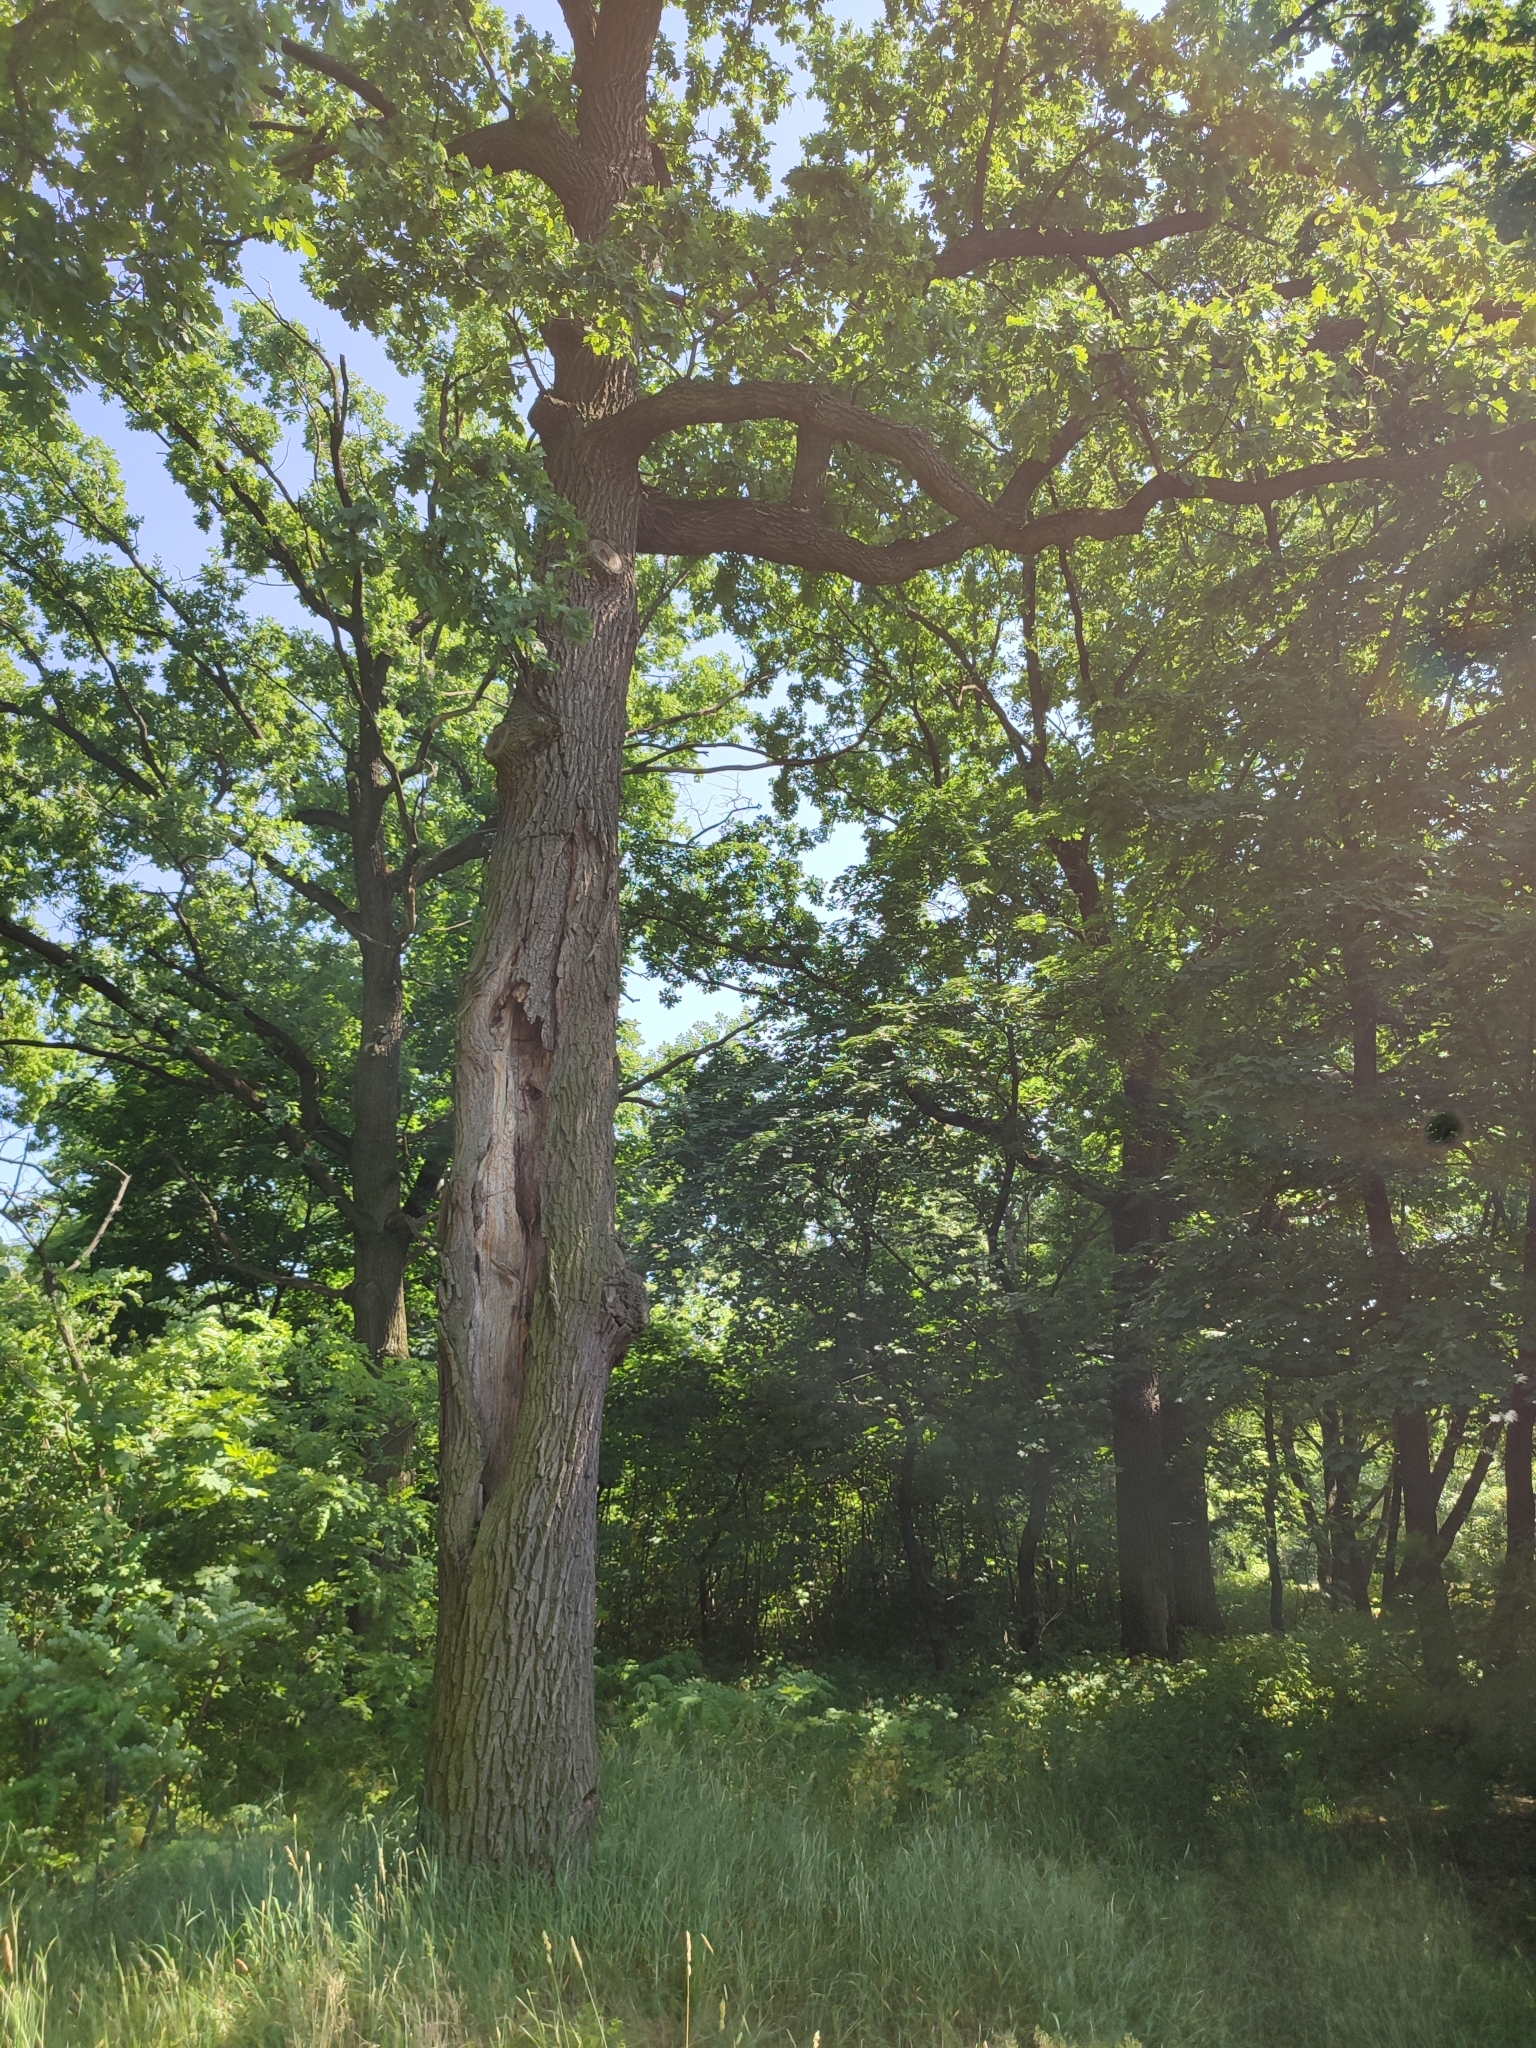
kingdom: Plantae
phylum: Tracheophyta
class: Magnoliopsida
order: Fagales
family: Fagaceae
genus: Quercus
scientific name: Quercus robur
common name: Pedunculate oak
